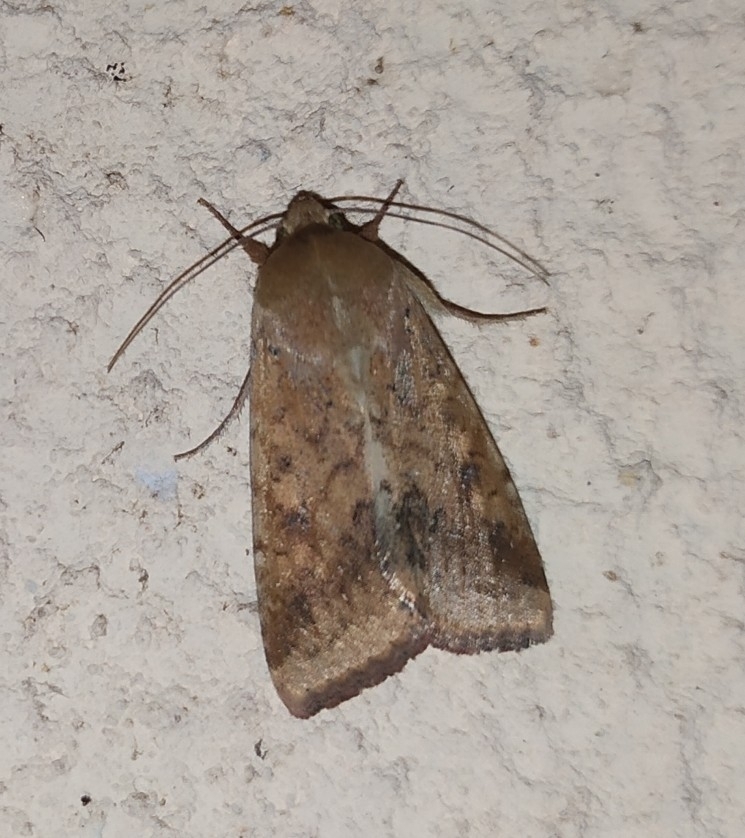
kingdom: Animalia
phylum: Arthropoda
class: Insecta
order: Lepidoptera
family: Noctuidae
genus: Helicoverpa
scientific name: Helicoverpa armigera
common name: Cotton bollworm
